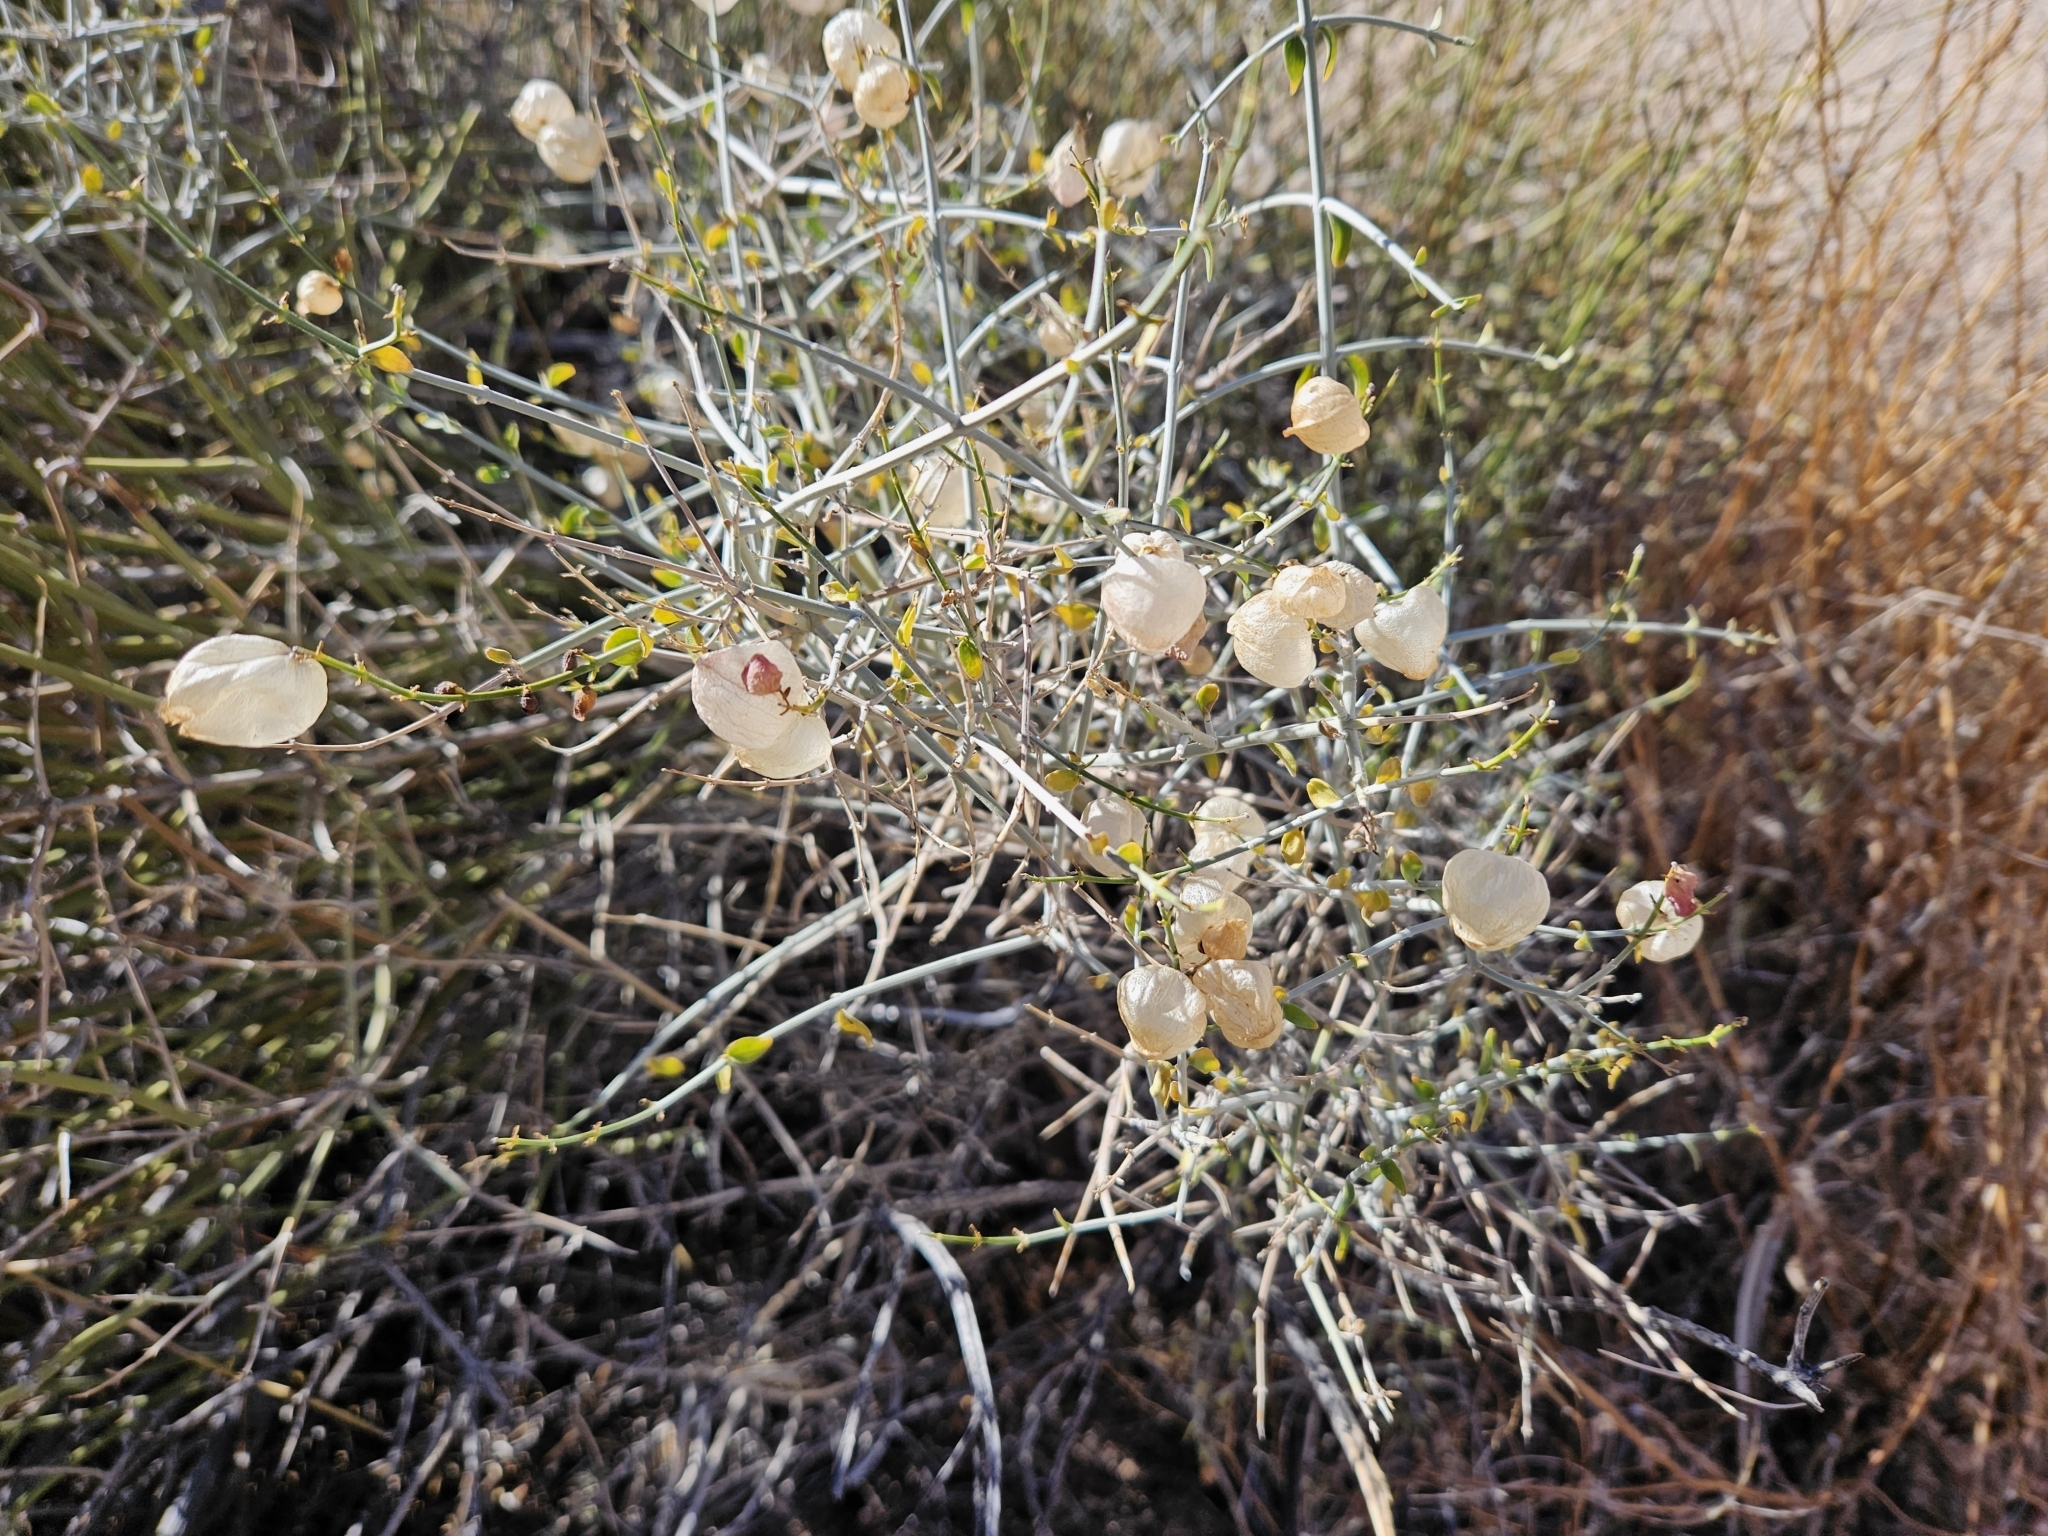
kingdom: Plantae
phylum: Tracheophyta
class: Magnoliopsida
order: Lamiales
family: Lamiaceae
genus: Scutellaria
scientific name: Scutellaria mexicana
